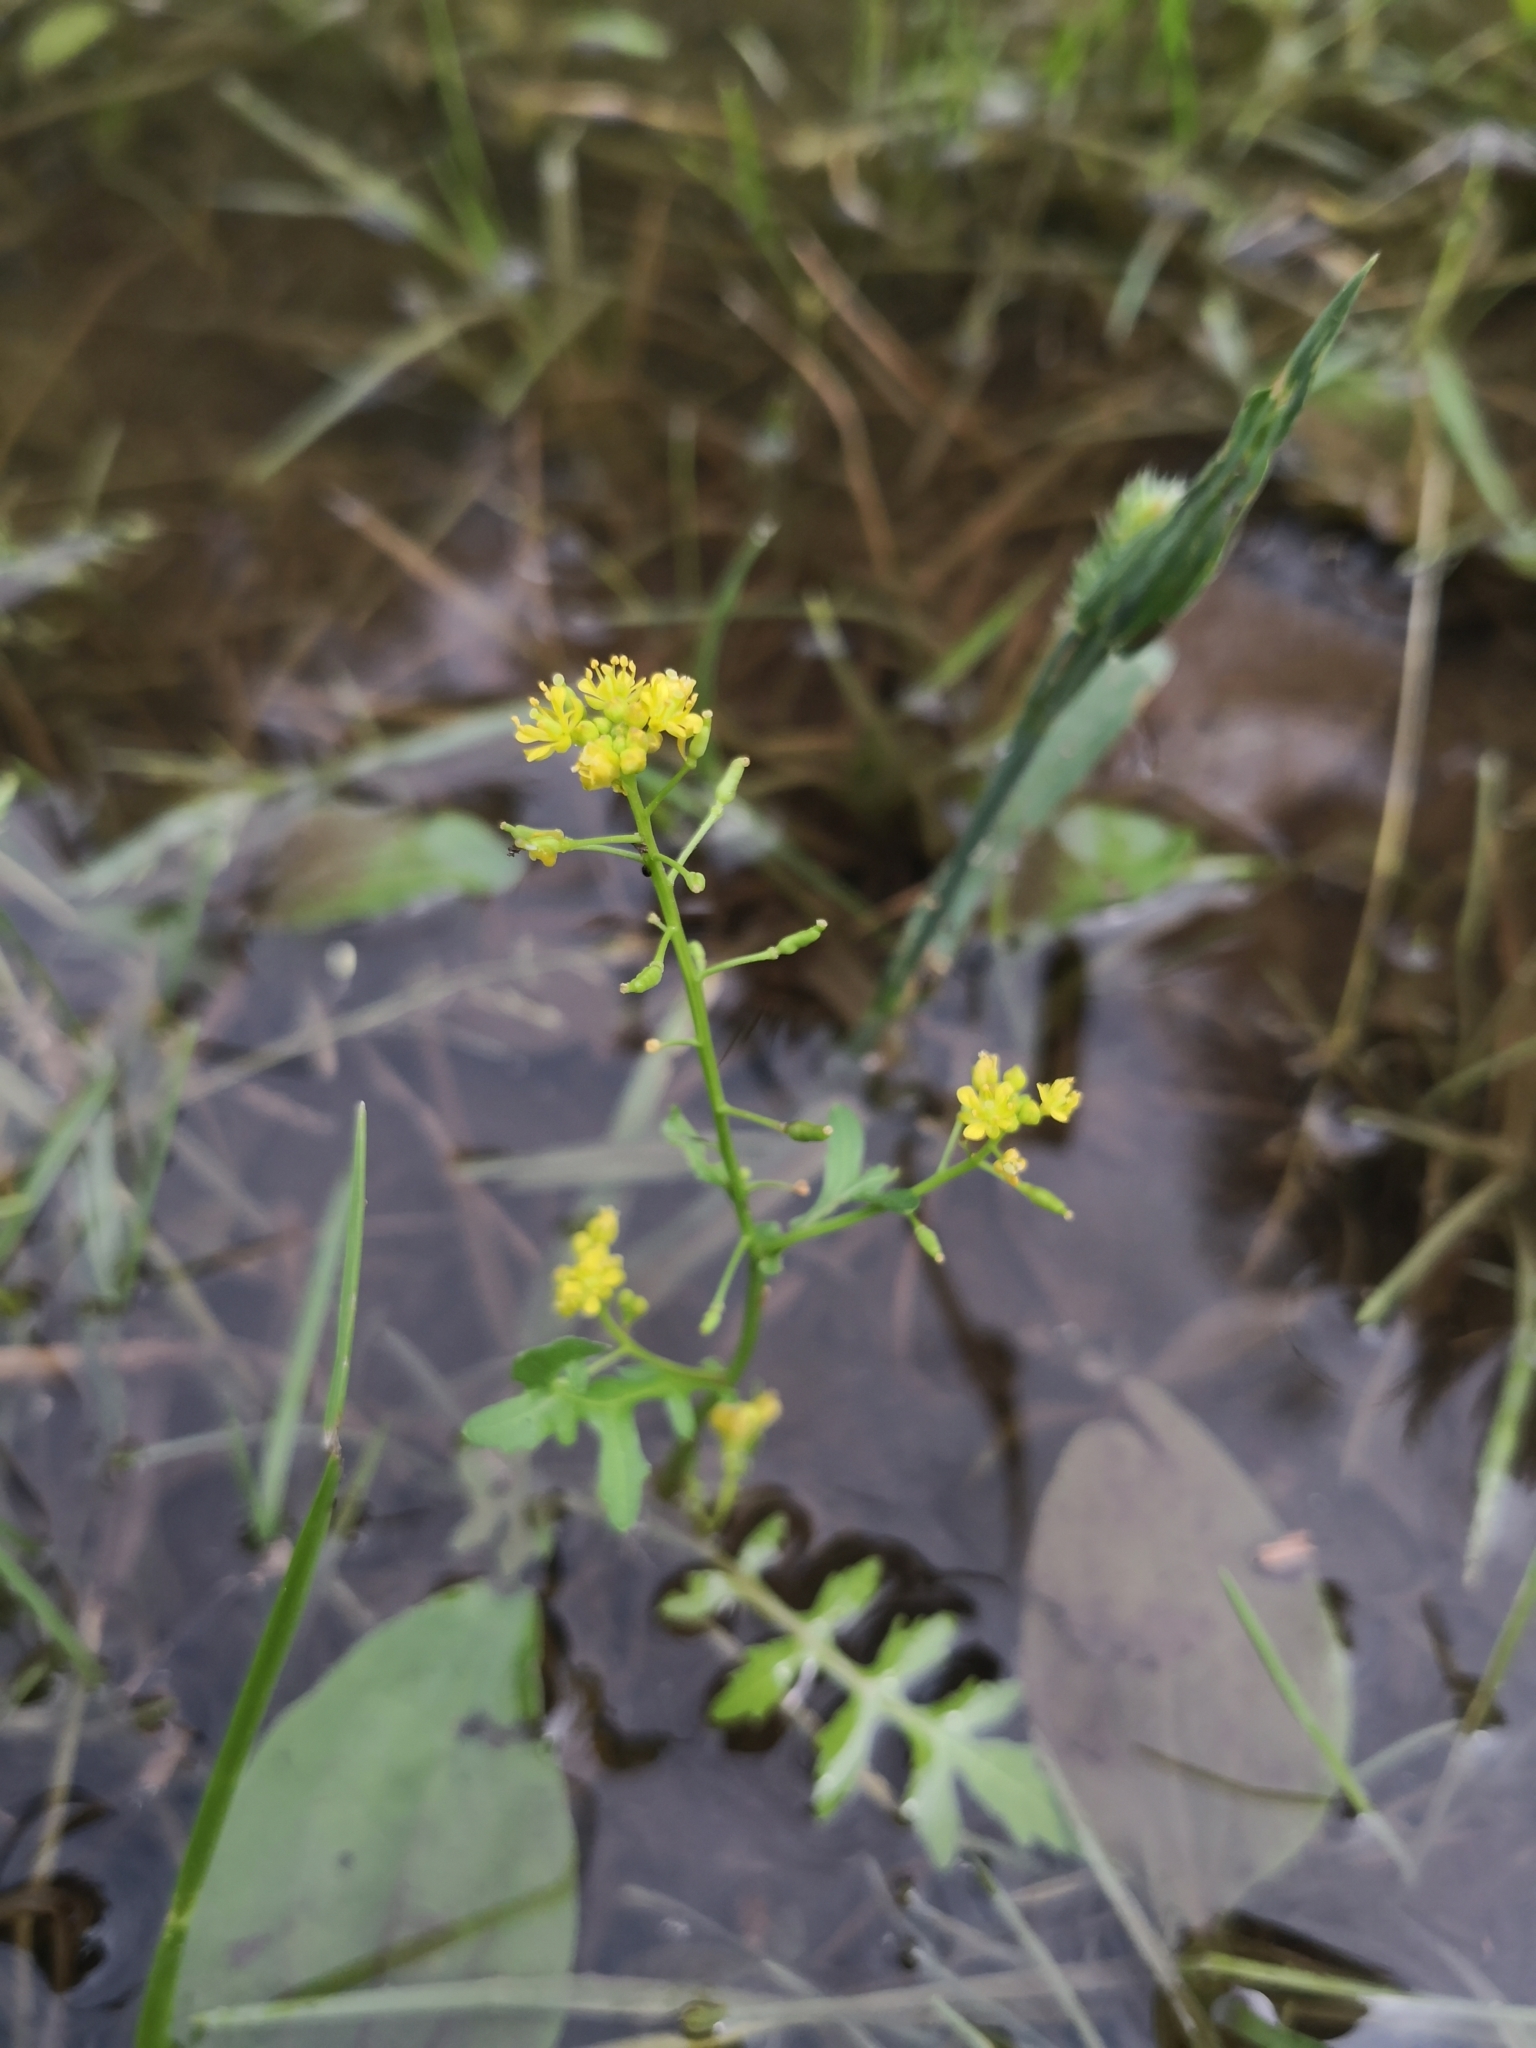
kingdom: Plantae
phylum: Tracheophyta
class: Magnoliopsida
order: Brassicales
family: Brassicaceae
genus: Rorippa
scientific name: Rorippa palustris
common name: Marsh yellow-cress
